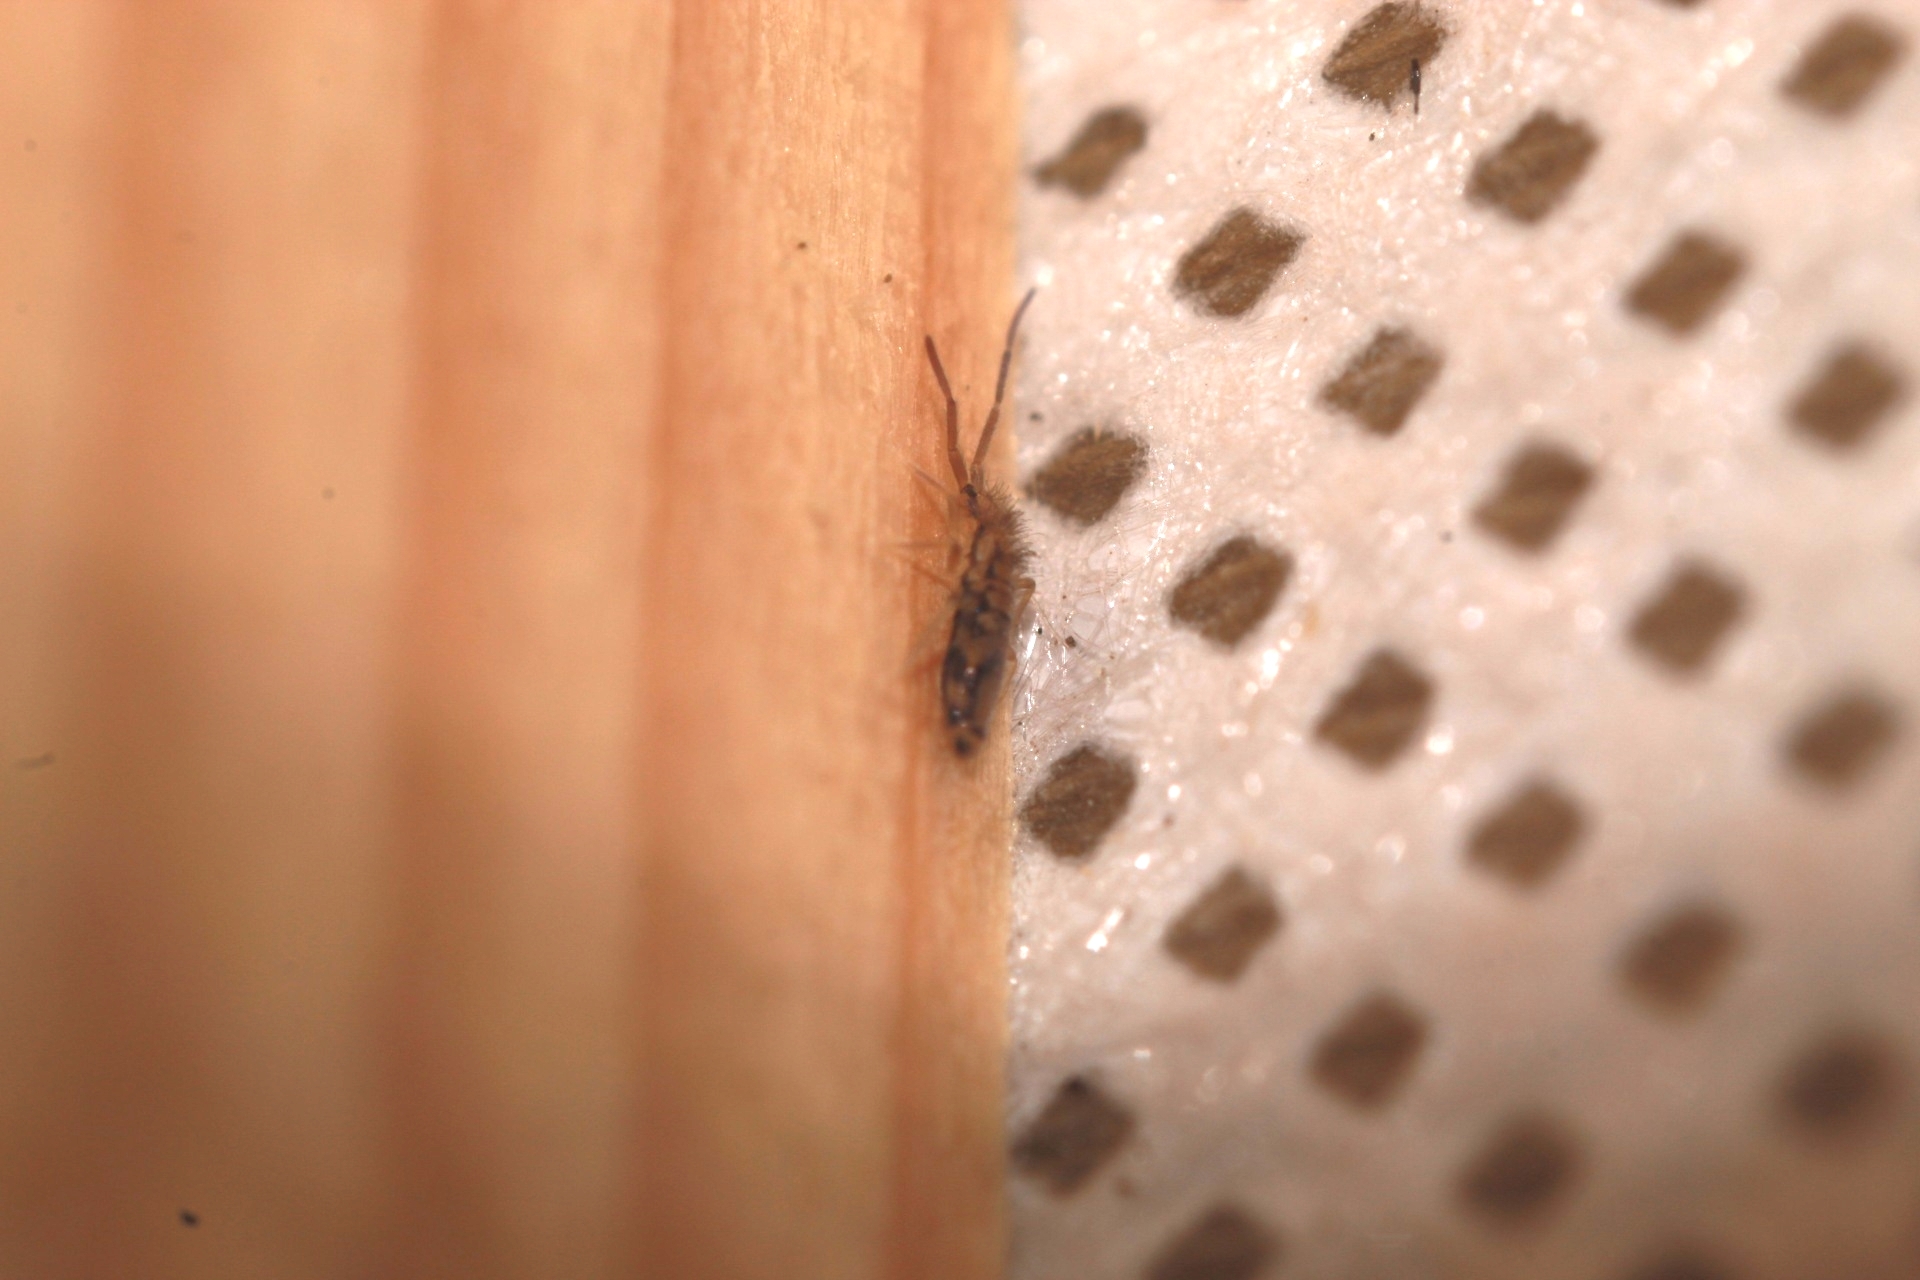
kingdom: Animalia
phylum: Arthropoda
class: Collembola
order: Entomobryomorpha
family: Entomobryidae
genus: Entomobrya
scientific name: Entomobrya intermedia
